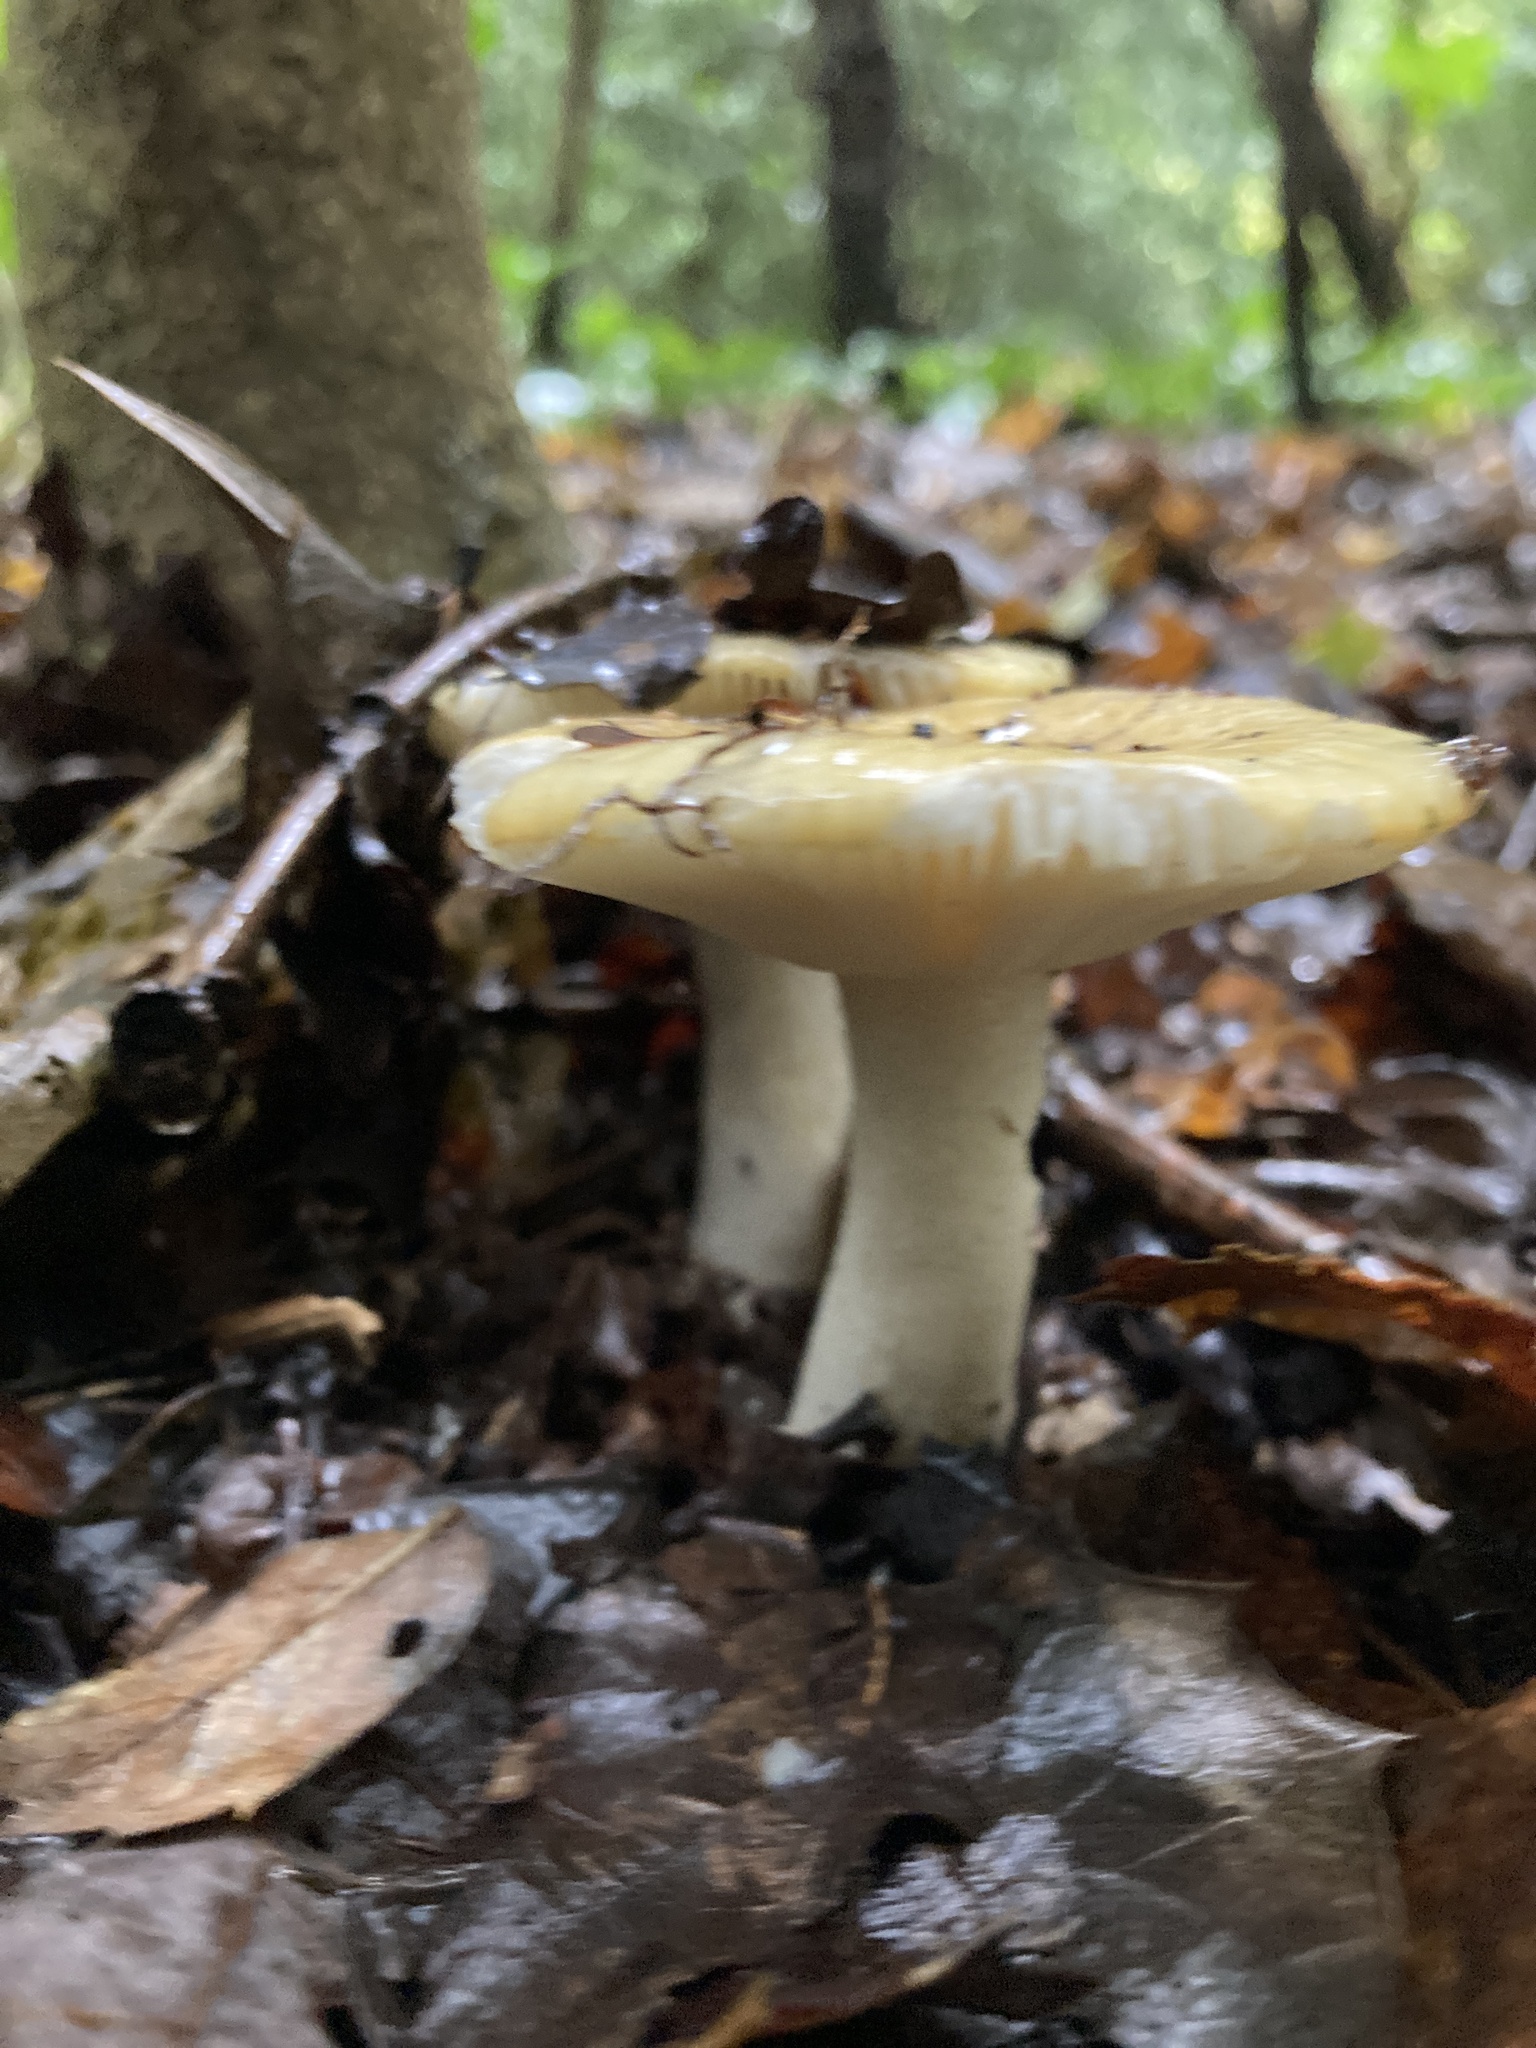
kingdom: Fungi
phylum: Basidiomycota
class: Agaricomycetes
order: Russulales
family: Russulaceae
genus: Russula
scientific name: Russula ochroleuca
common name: Common yellow russula
